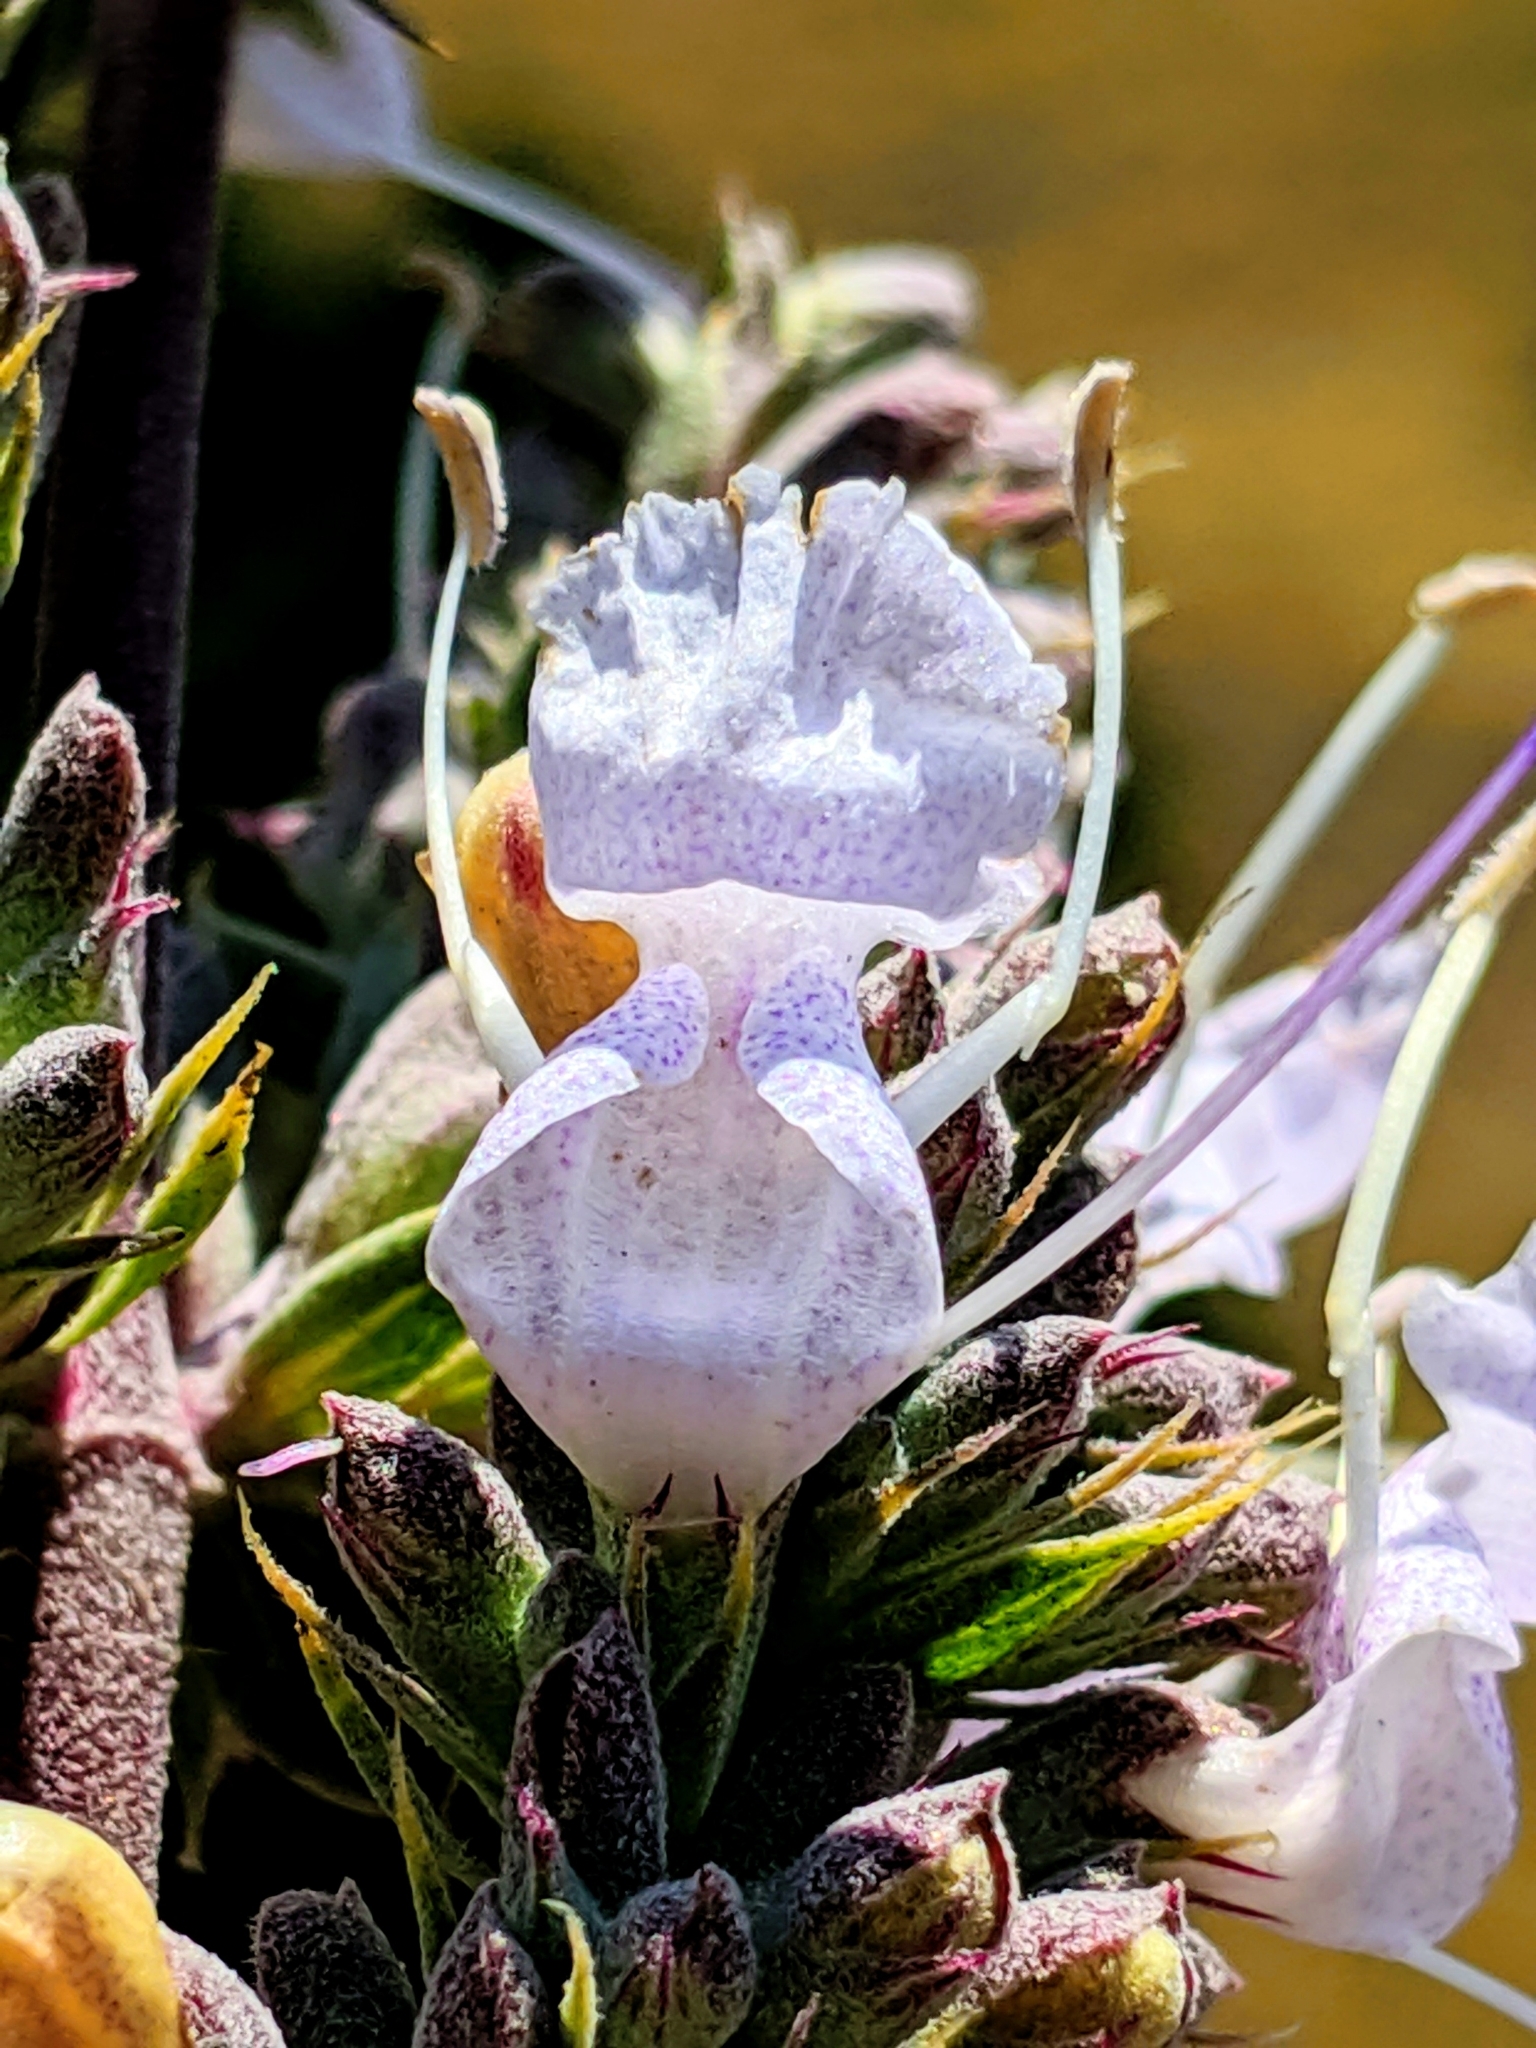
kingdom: Plantae
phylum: Tracheophyta
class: Magnoliopsida
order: Lamiales
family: Lamiaceae
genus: Salvia
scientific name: Salvia apiana
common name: White sage
